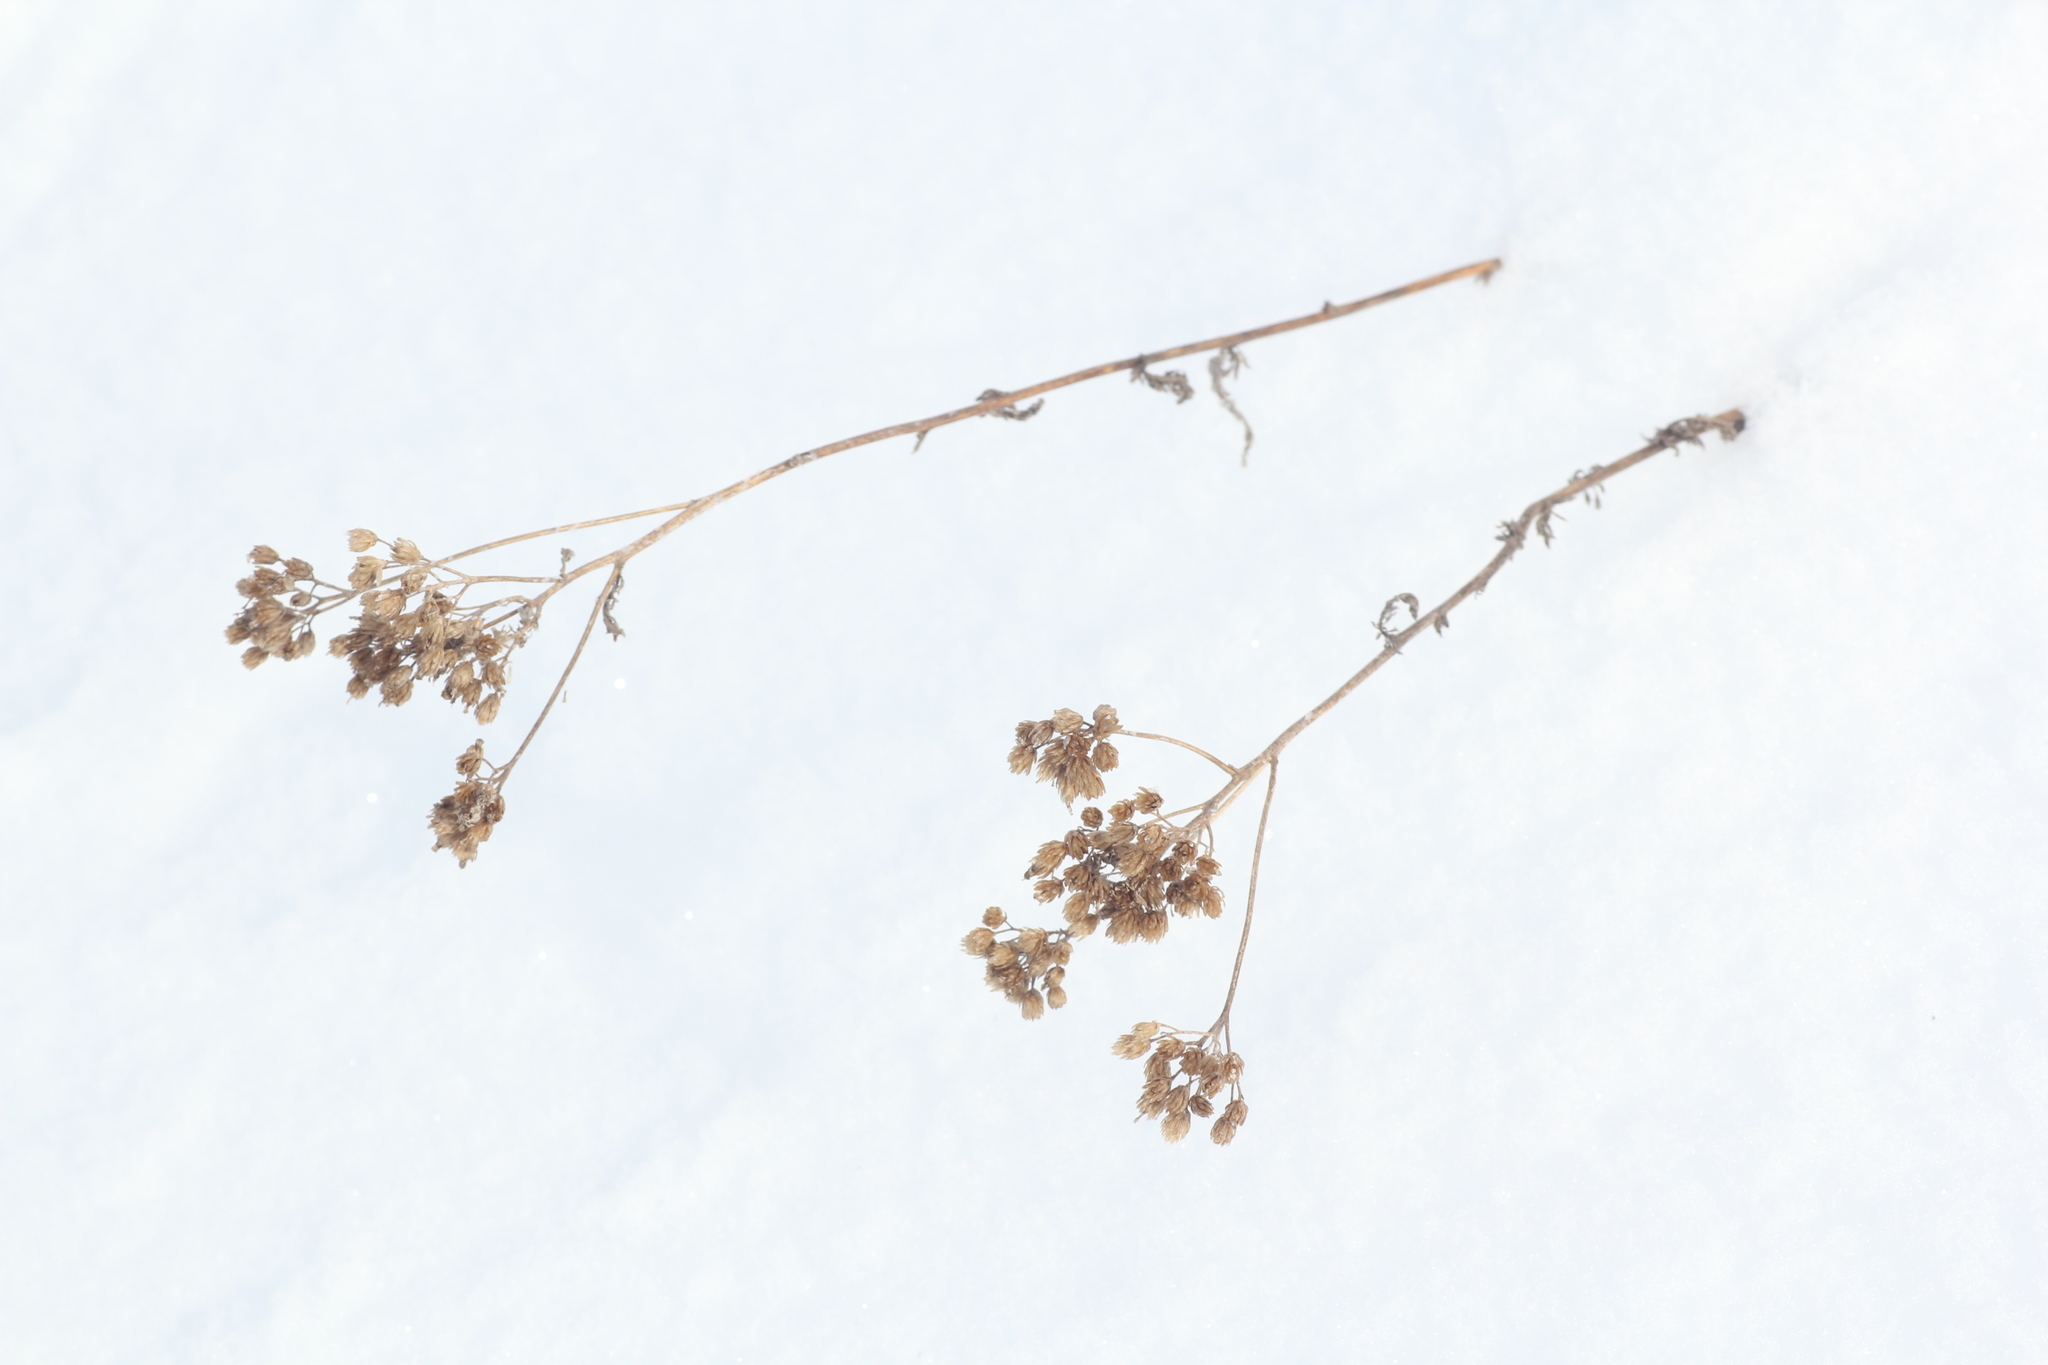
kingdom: Plantae
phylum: Tracheophyta
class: Magnoliopsida
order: Asterales
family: Asteraceae
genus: Achillea
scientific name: Achillea asiatica
